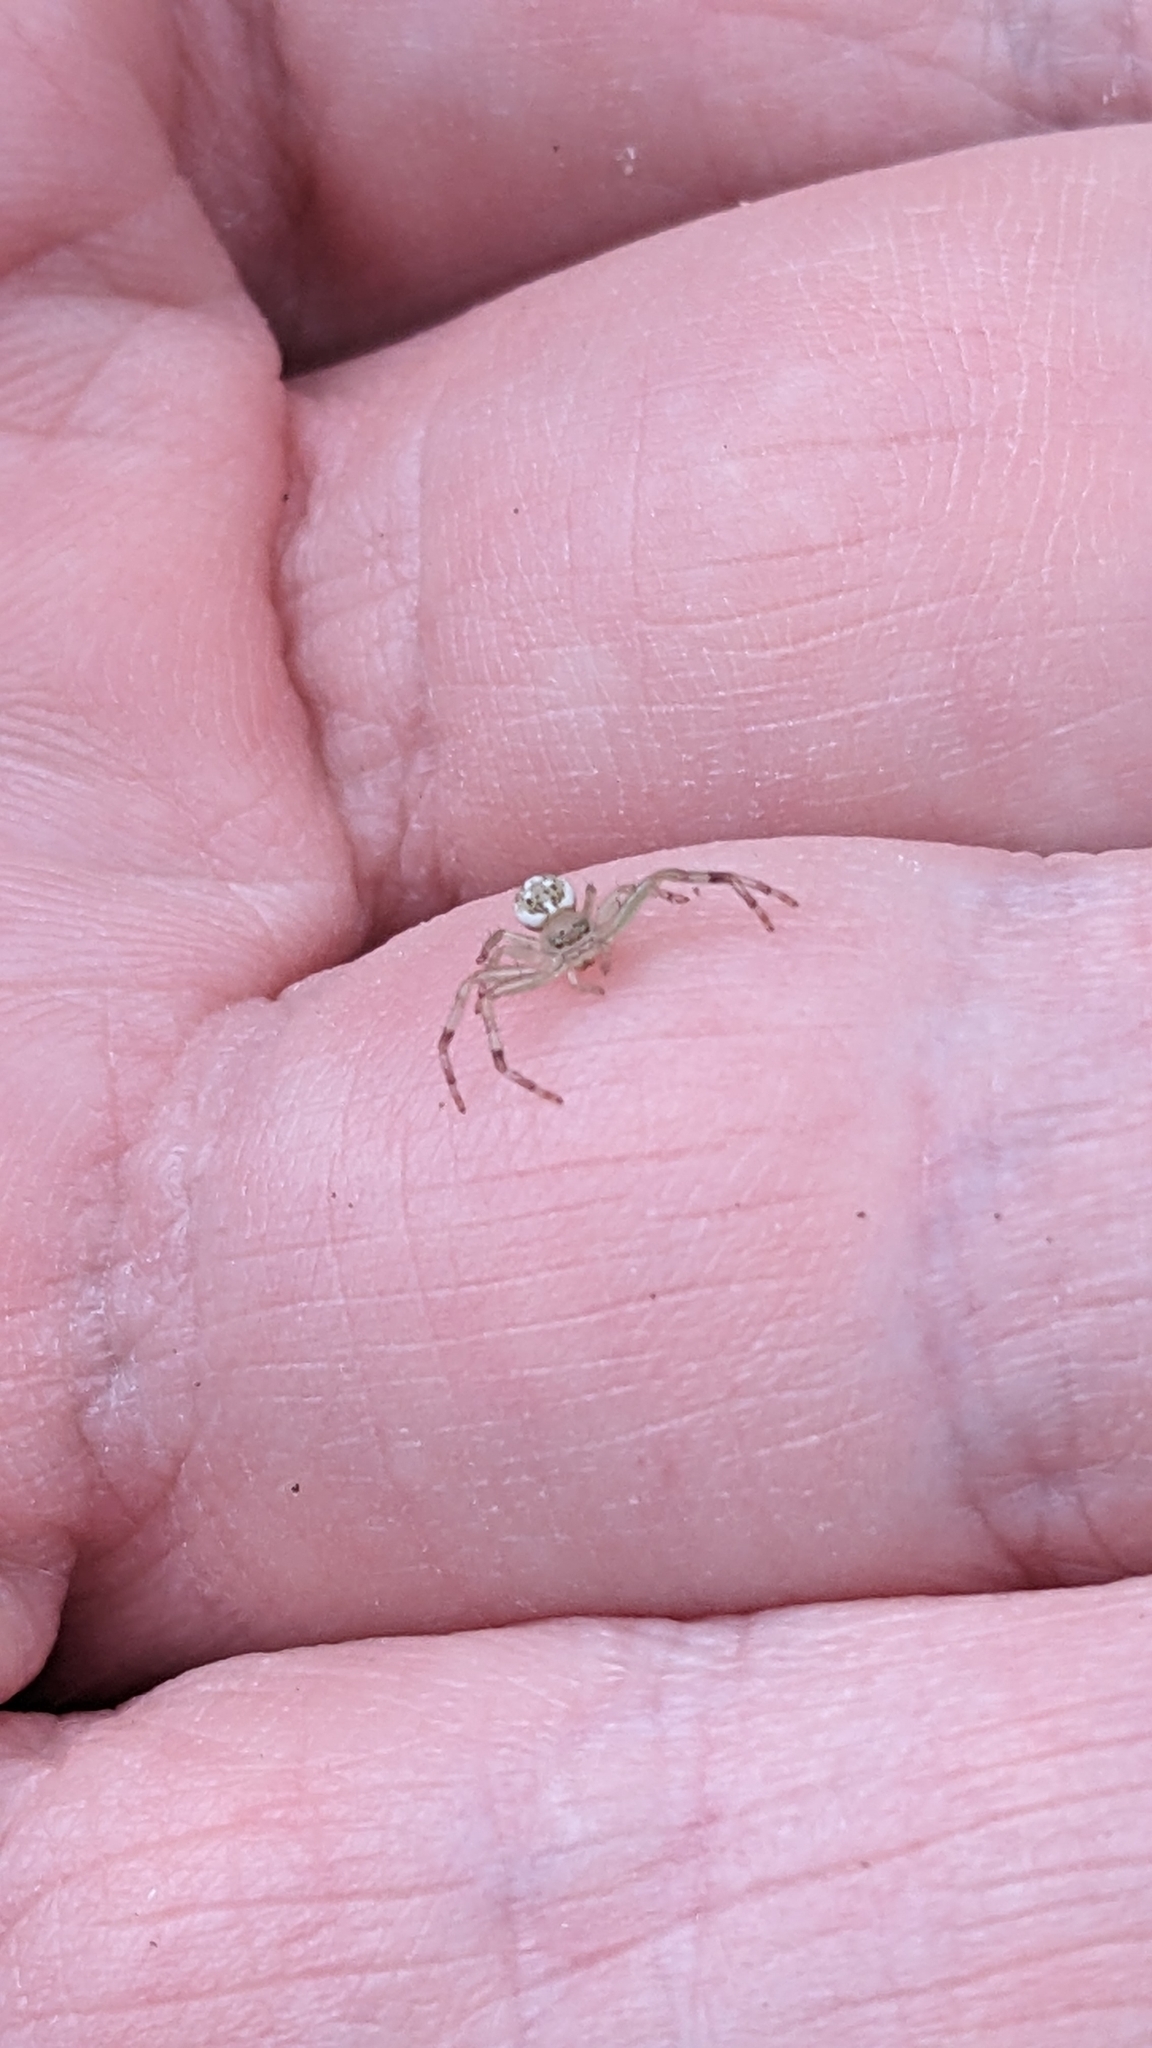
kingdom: Animalia
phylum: Arthropoda
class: Arachnida
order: Araneae
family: Thomisidae
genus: Diaea
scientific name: Diaea ambara
